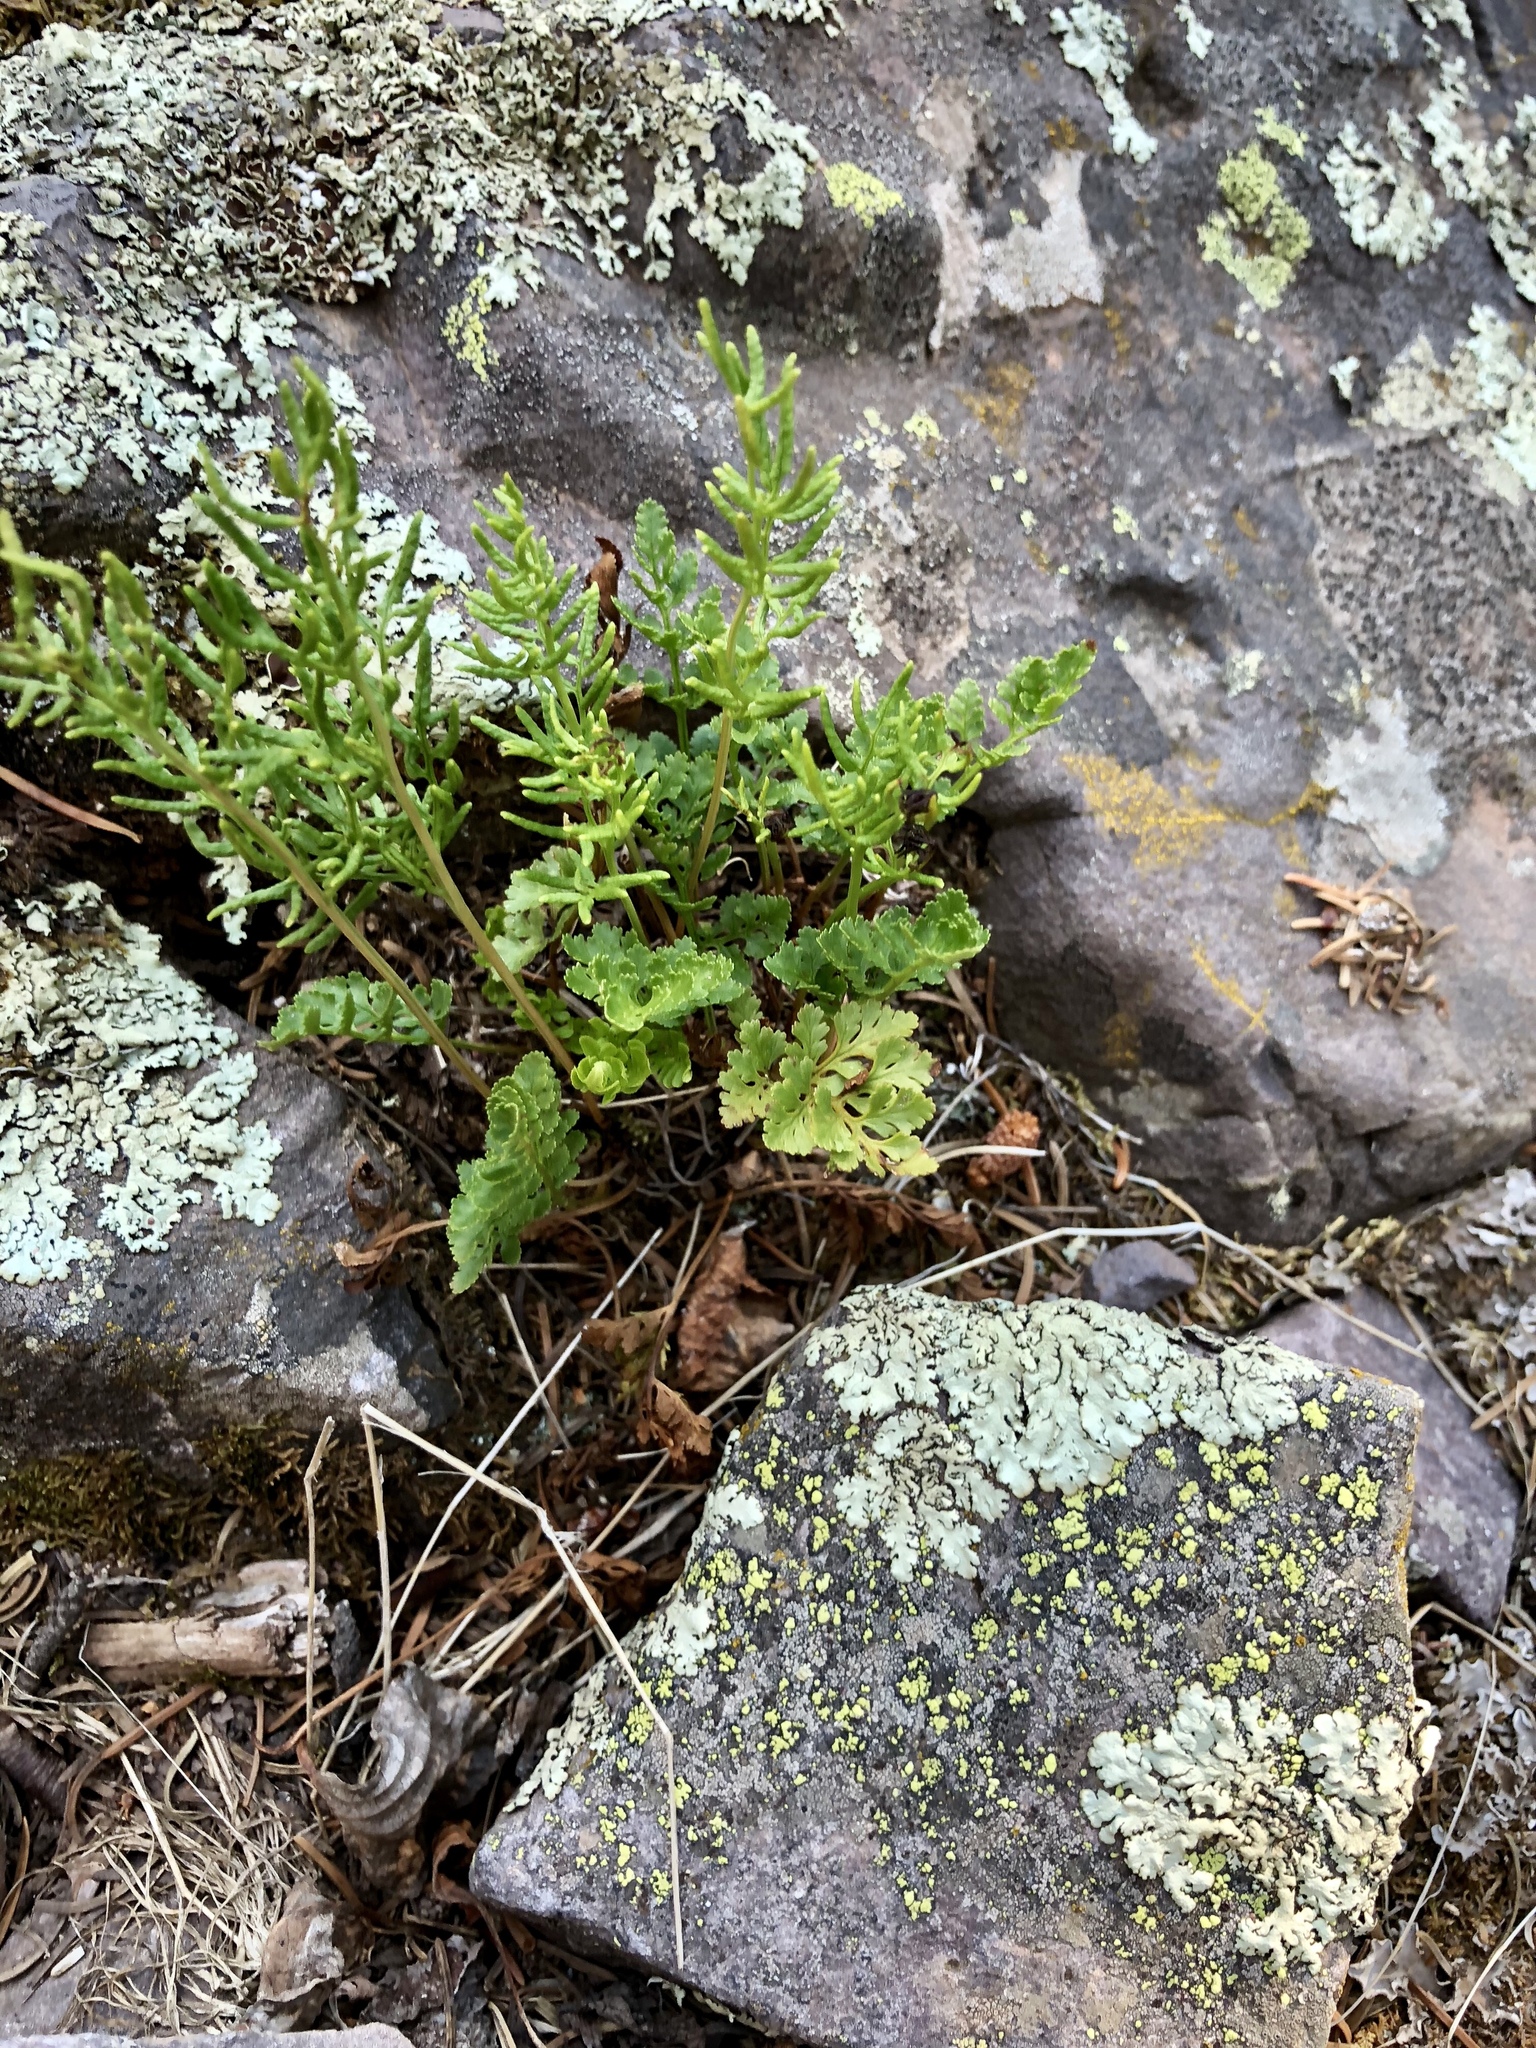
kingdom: Plantae
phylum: Tracheophyta
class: Polypodiopsida
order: Polypodiales
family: Pteridaceae
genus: Cryptogramma
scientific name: Cryptogramma acrostichoides
